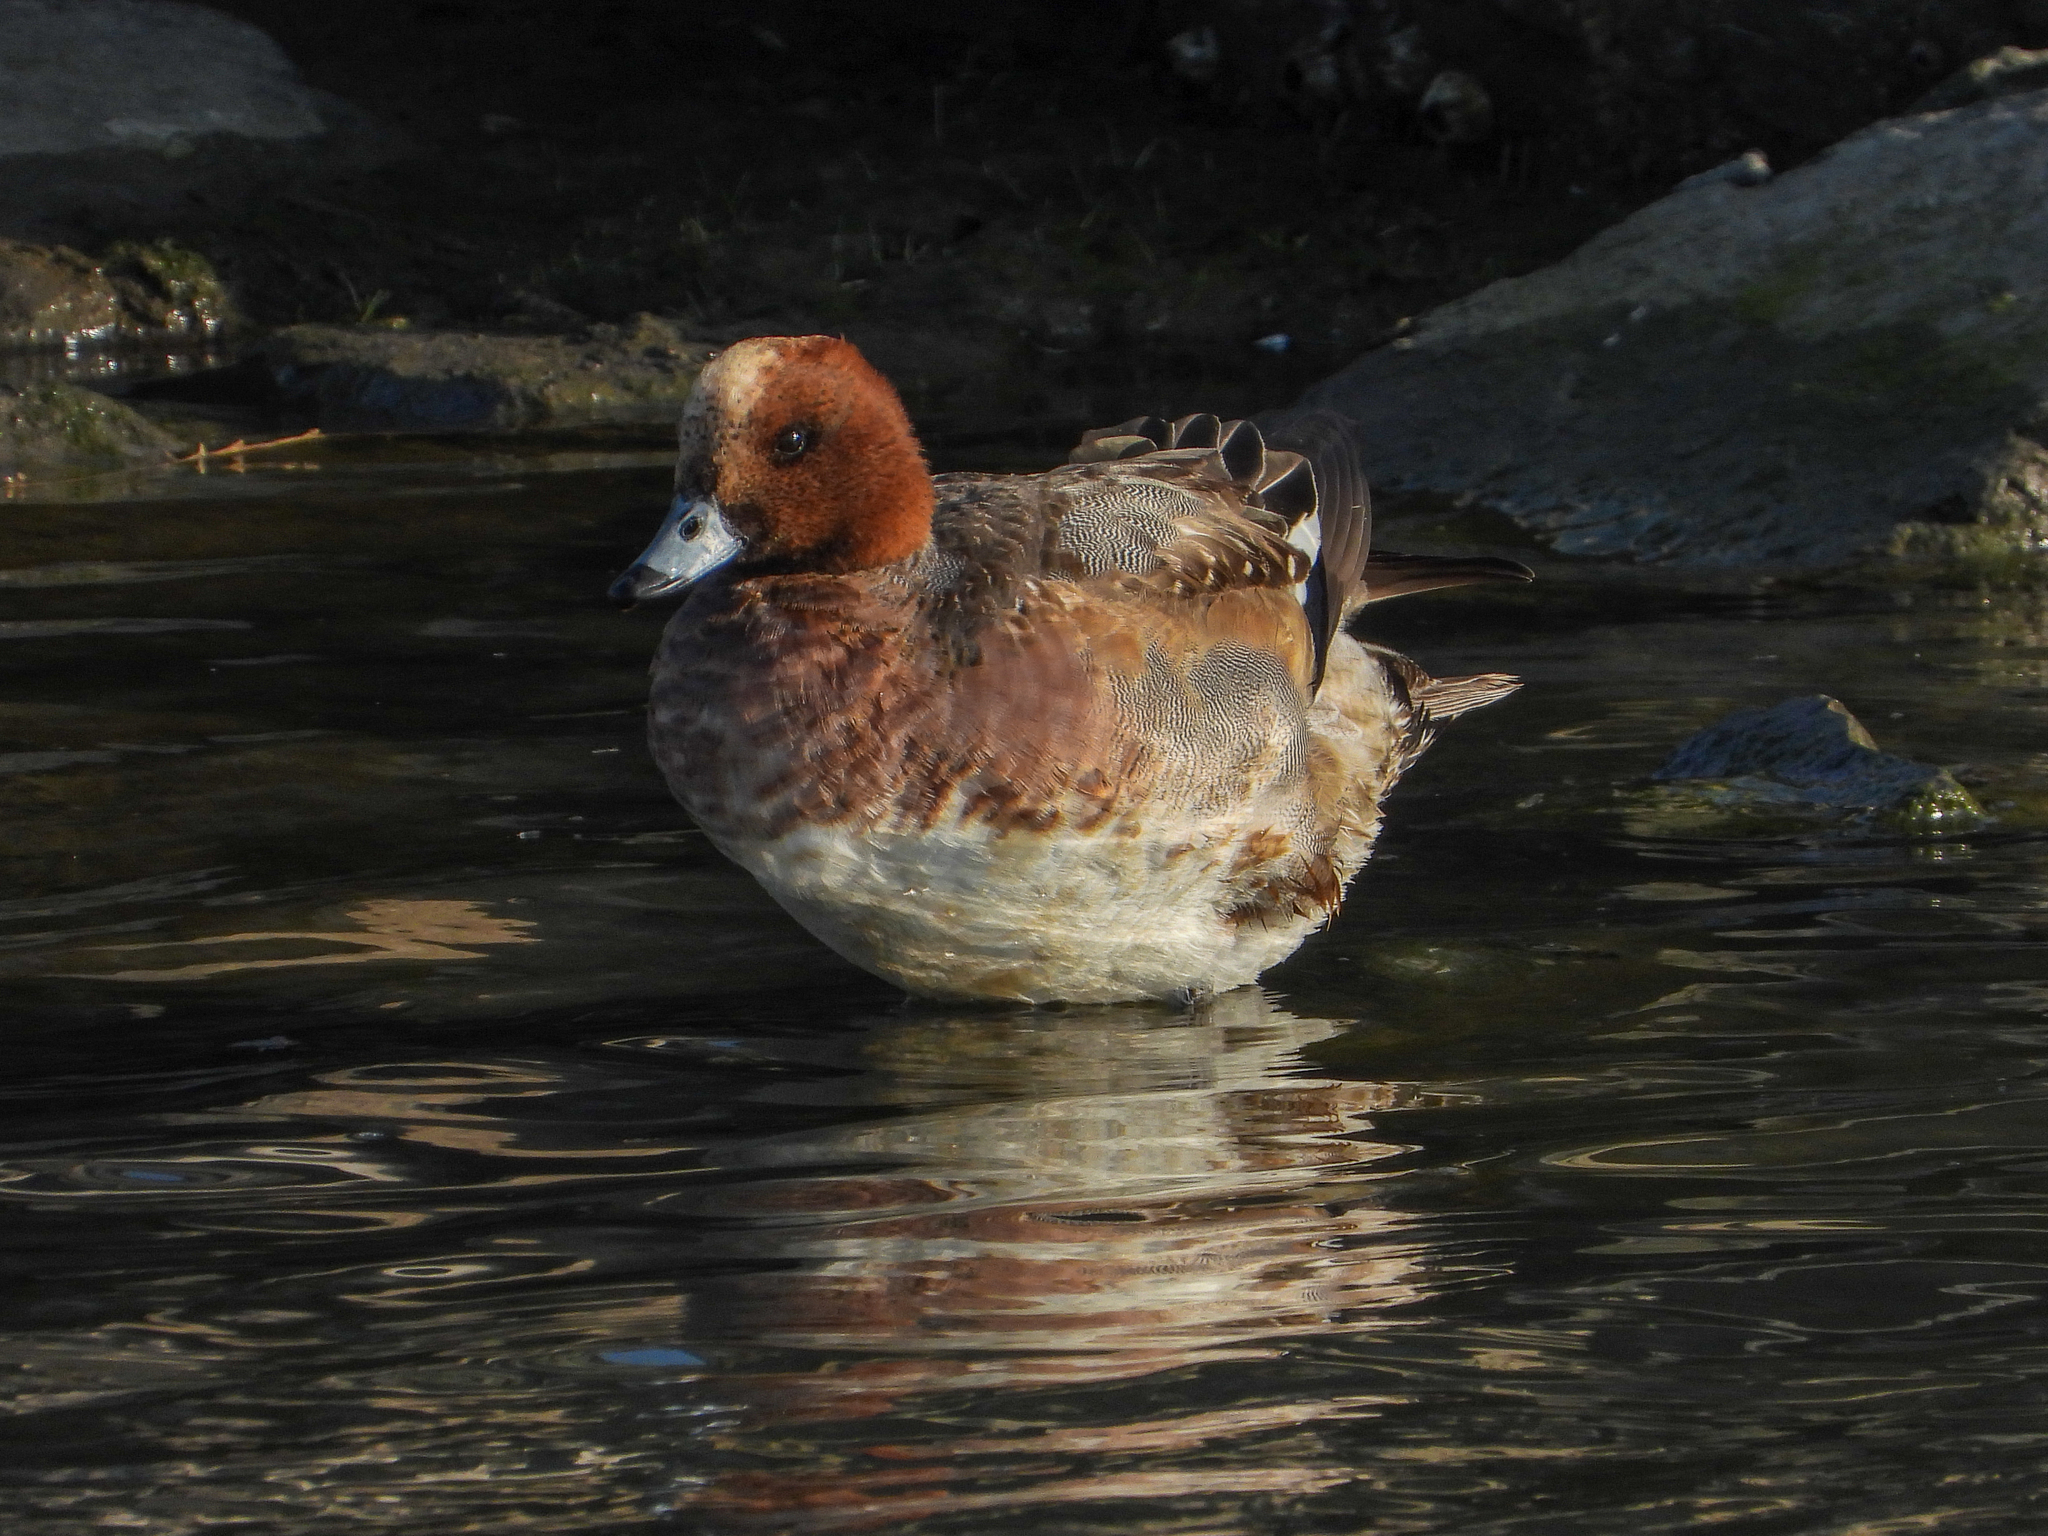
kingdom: Animalia
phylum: Chordata
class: Aves
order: Anseriformes
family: Anatidae
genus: Mareca
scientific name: Mareca penelope
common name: Eurasian wigeon
